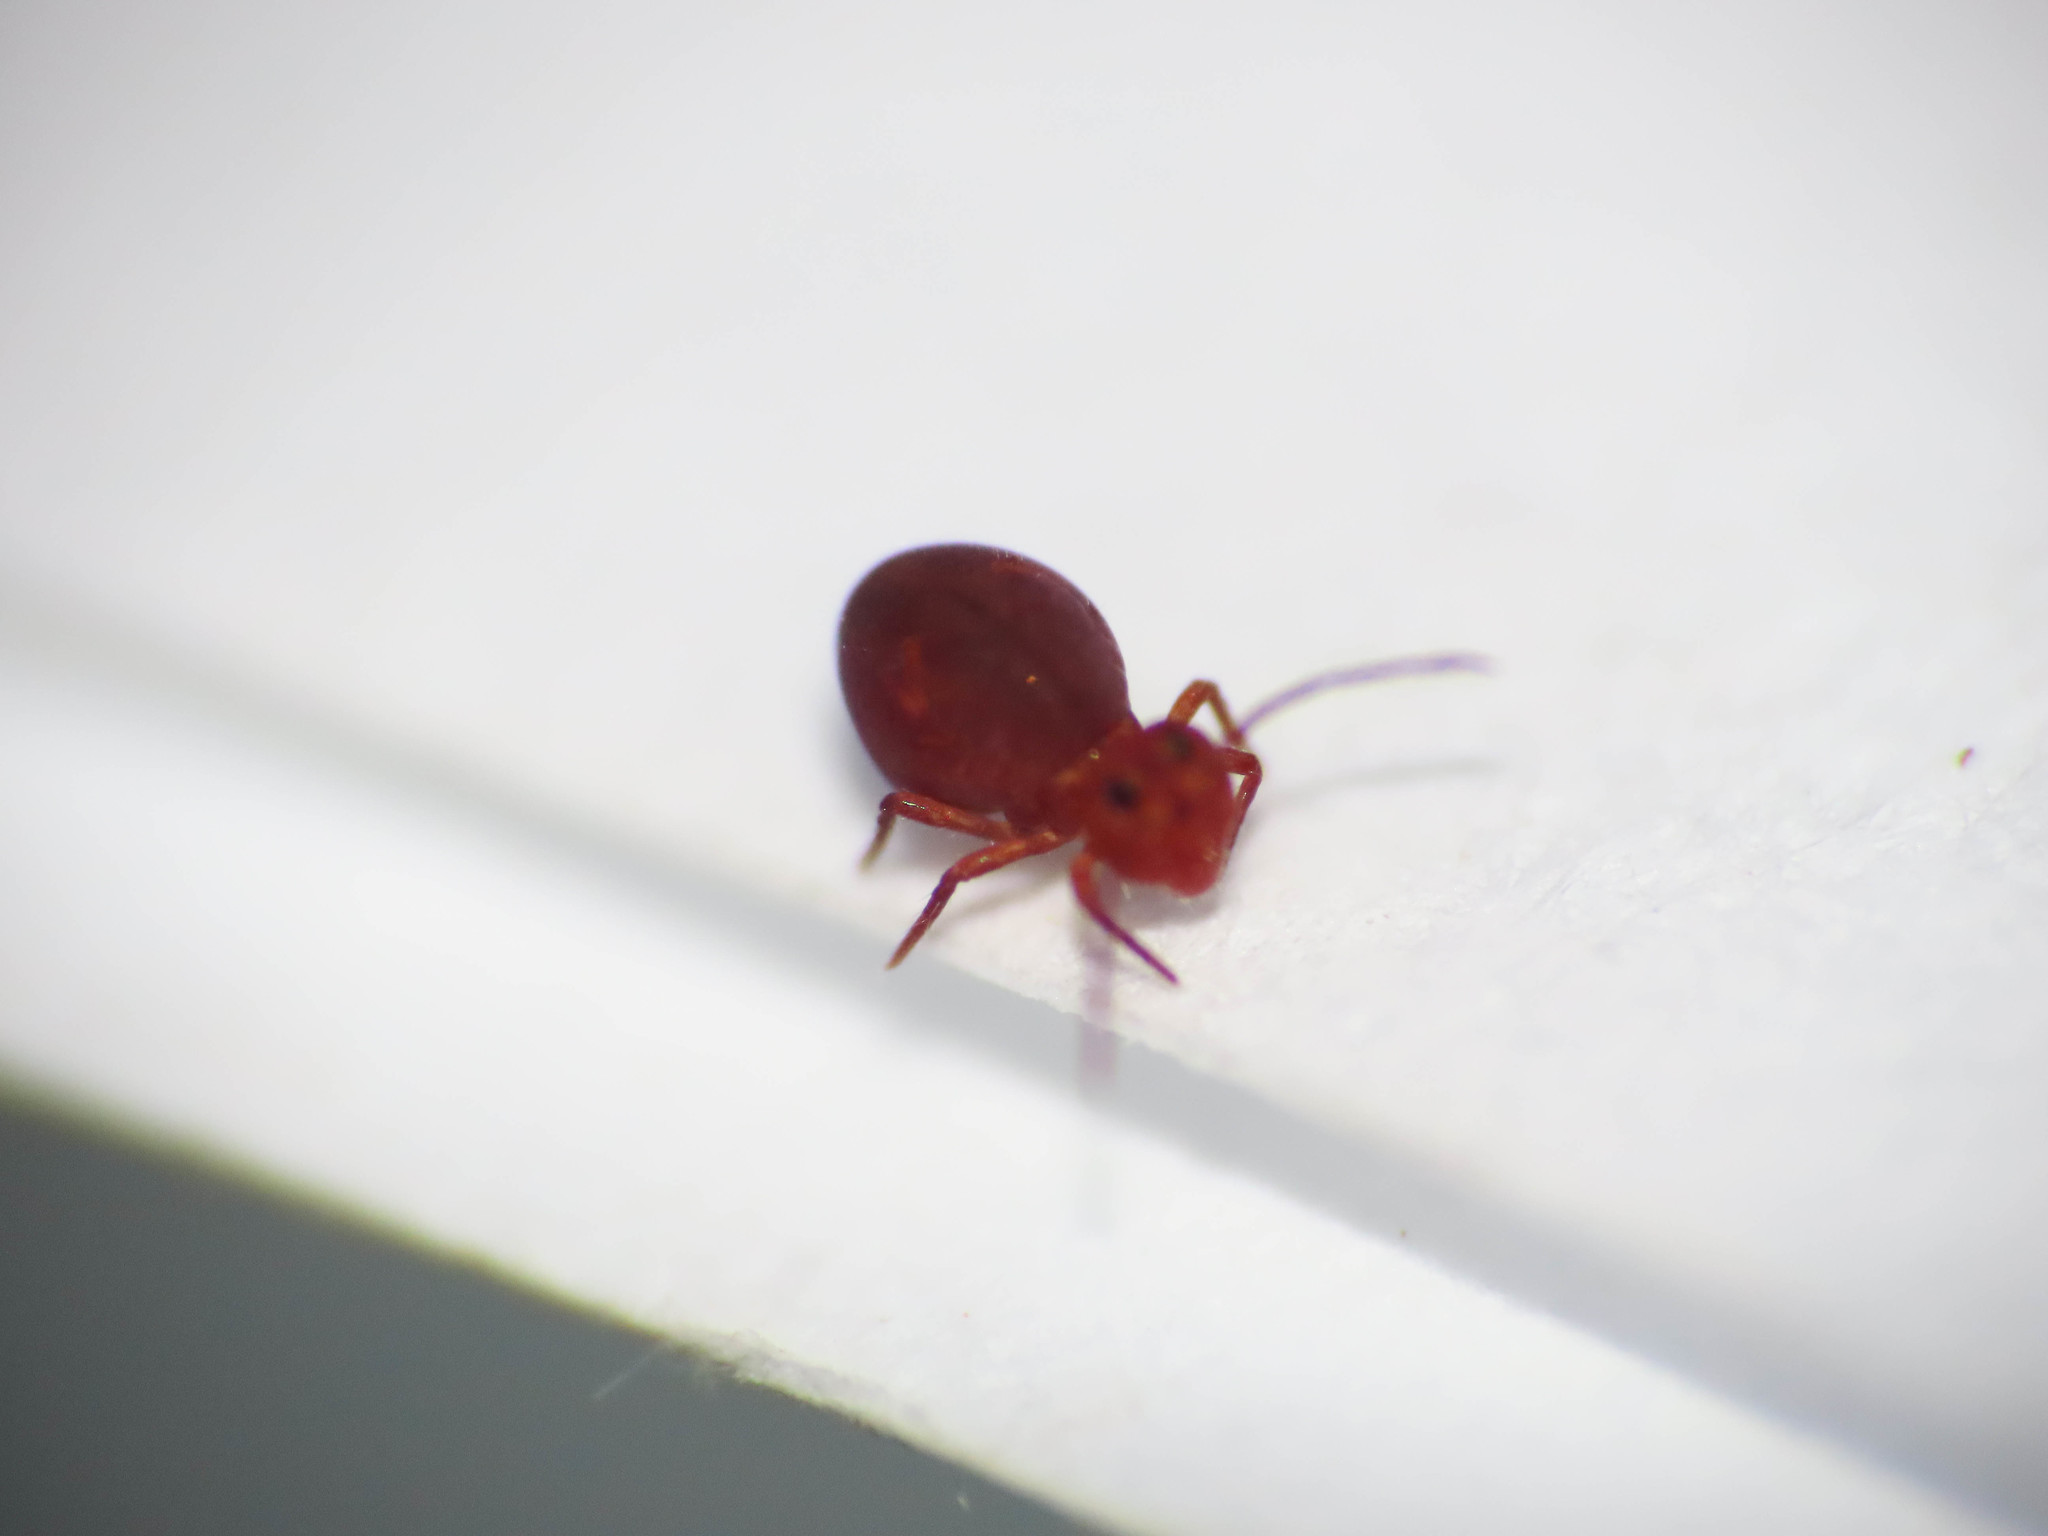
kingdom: Animalia
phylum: Arthropoda
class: Collembola
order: Symphypleona
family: Dicyrtomidae
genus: Dicyrtoma
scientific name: Dicyrtoma fusca
